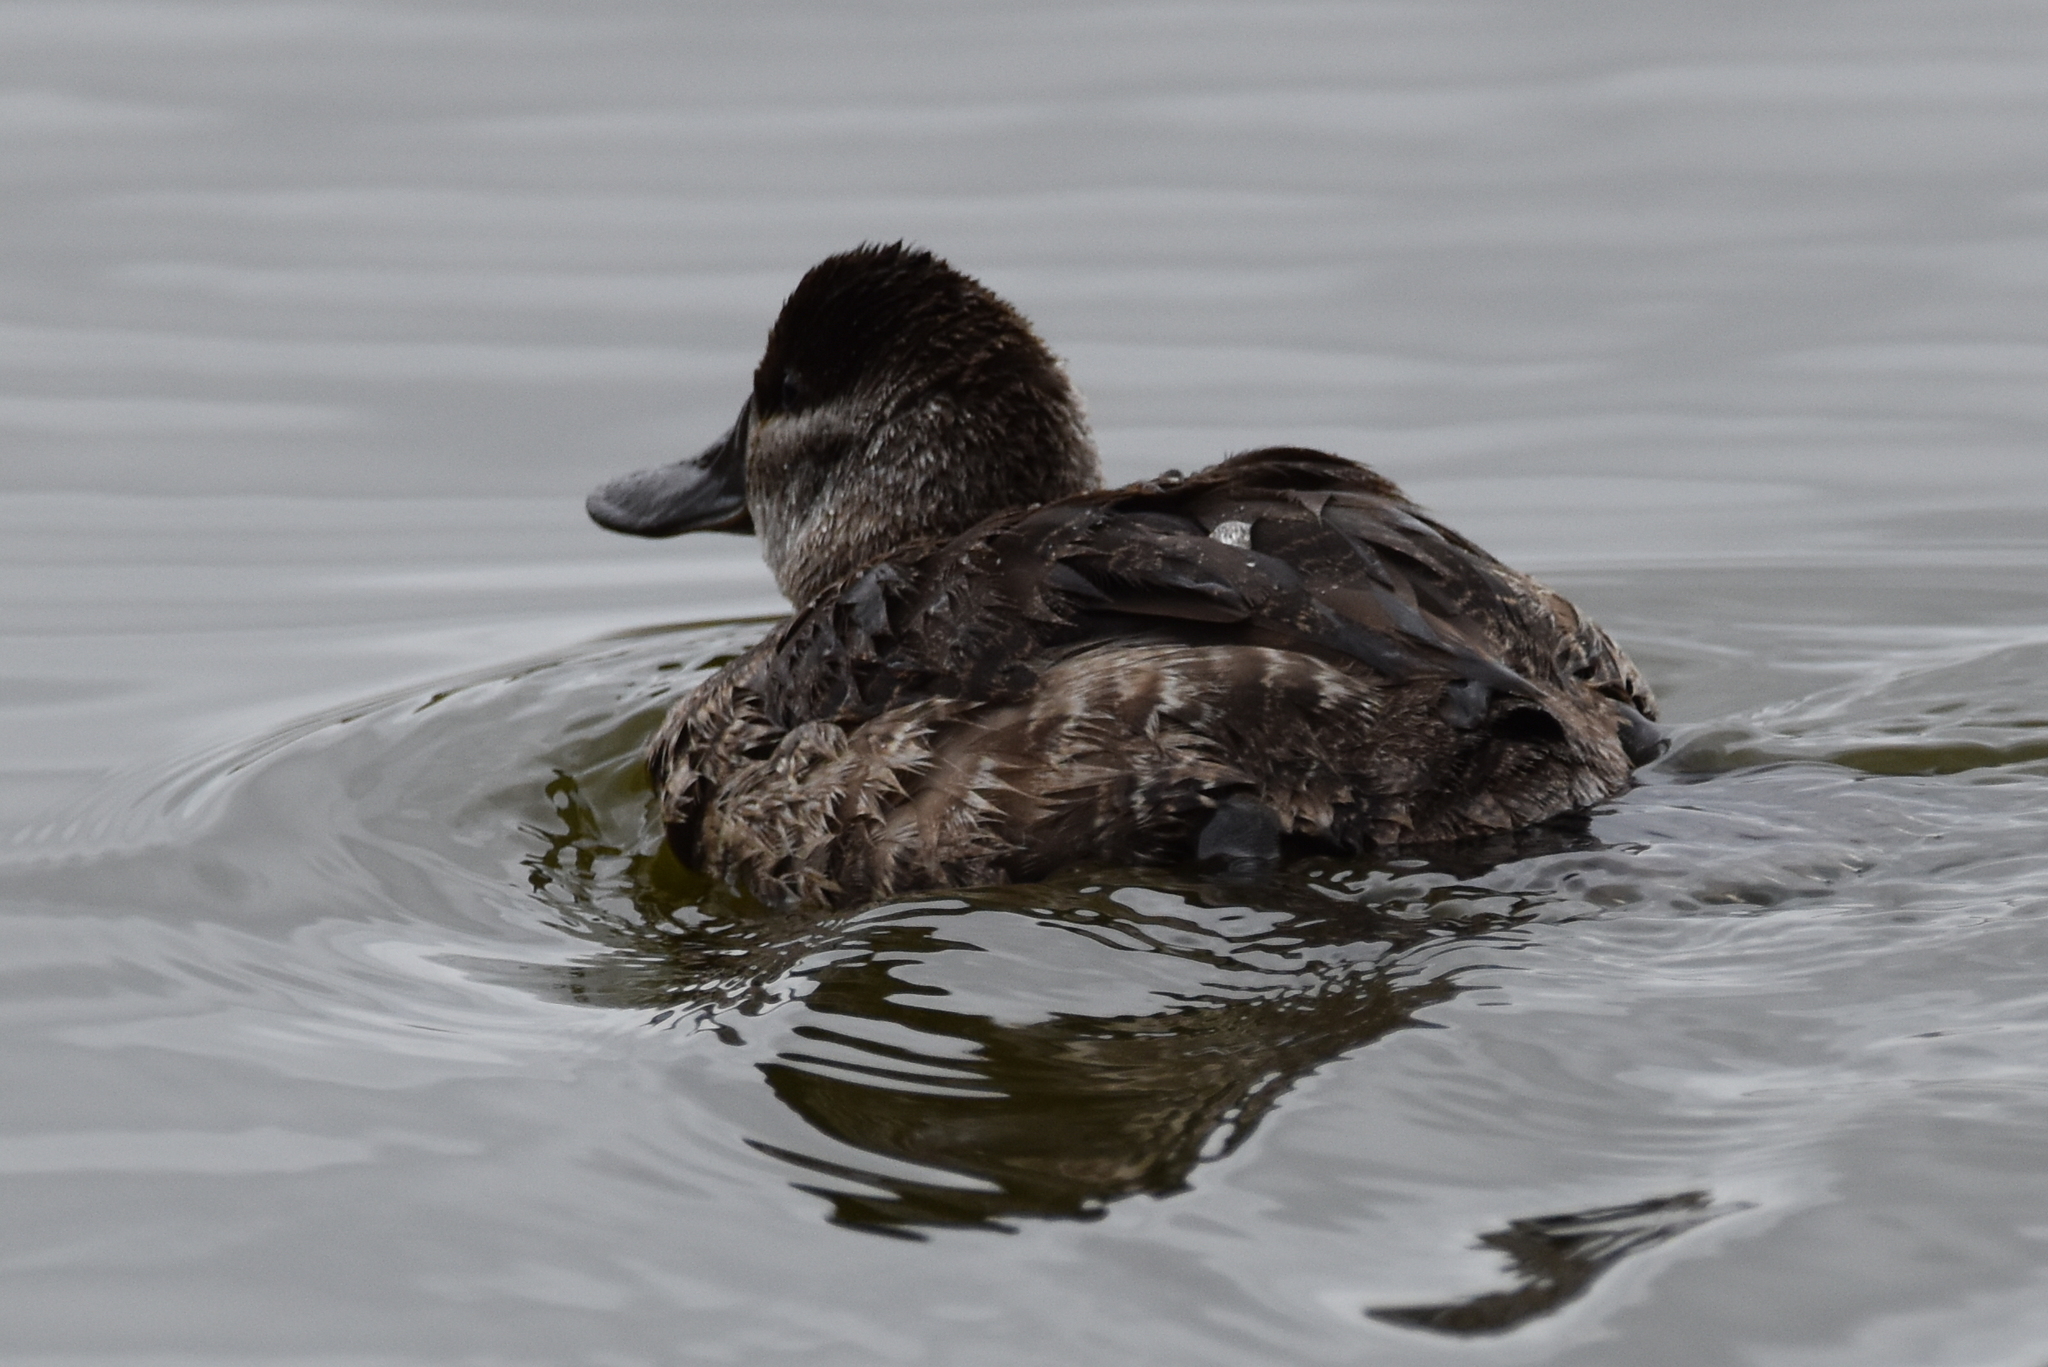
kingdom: Animalia
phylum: Chordata
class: Aves
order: Anseriformes
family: Anatidae
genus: Oxyura
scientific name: Oxyura jamaicensis
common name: Ruddy duck
